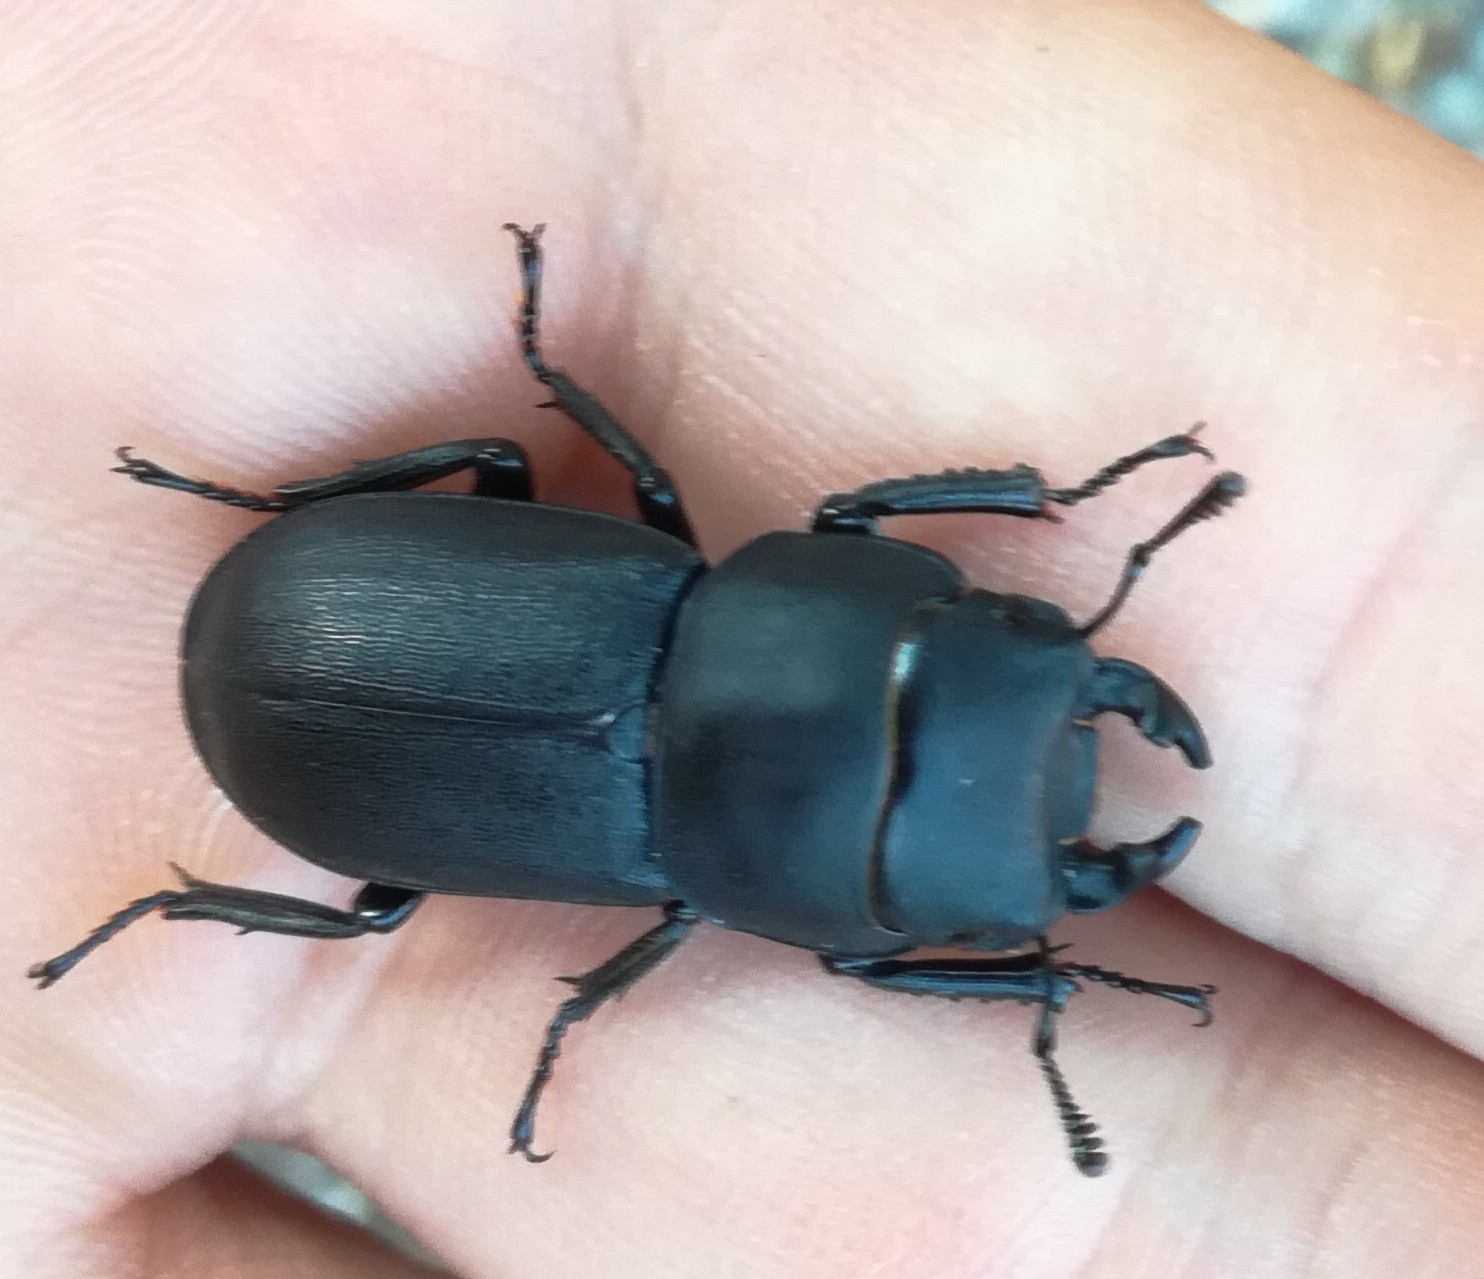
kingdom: Animalia
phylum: Arthropoda
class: Insecta
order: Coleoptera
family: Lucanidae
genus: Dorcus
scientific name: Dorcus parallelipipedus
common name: Lesser stag beetle
